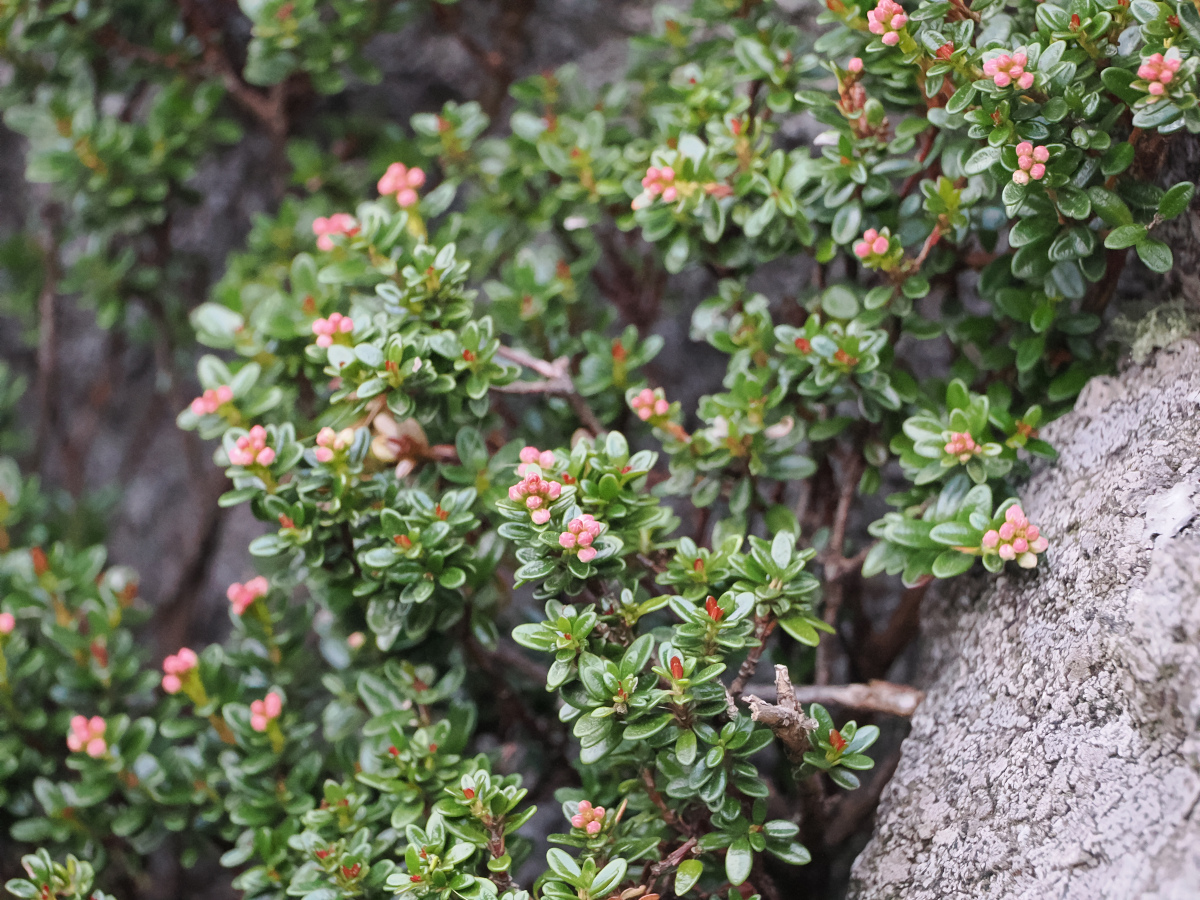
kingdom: Plantae
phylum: Tracheophyta
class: Magnoliopsida
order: Ericales
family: Ericaceae
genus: Kalmia
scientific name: Kalmia buxifolia
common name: Sandmyrtle
